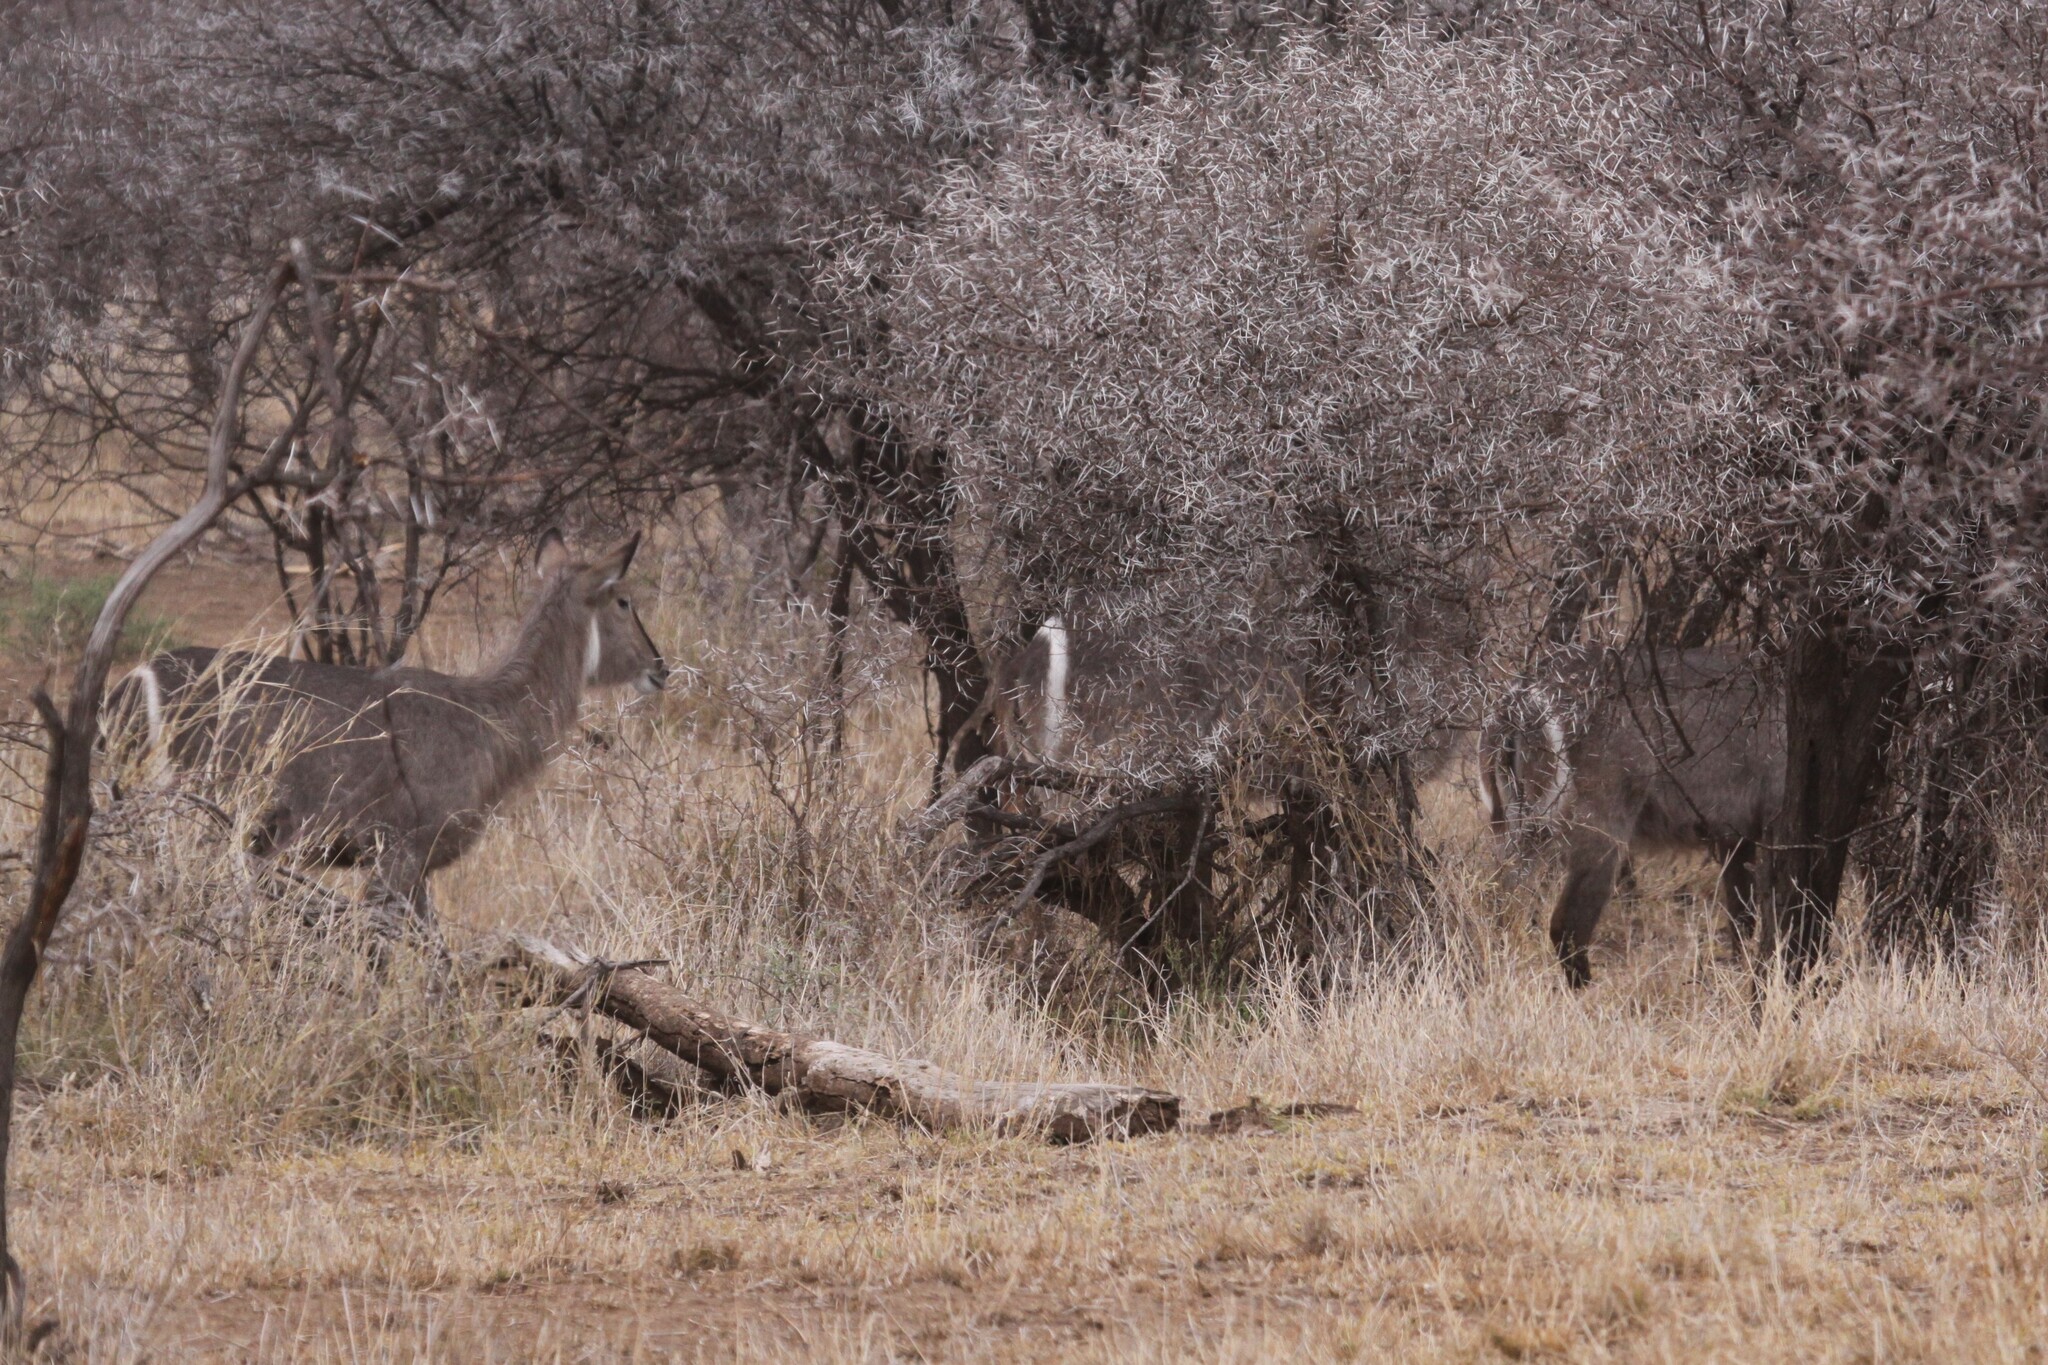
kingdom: Animalia
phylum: Chordata
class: Mammalia
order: Artiodactyla
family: Bovidae
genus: Kobus
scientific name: Kobus ellipsiprymnus
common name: Waterbuck
